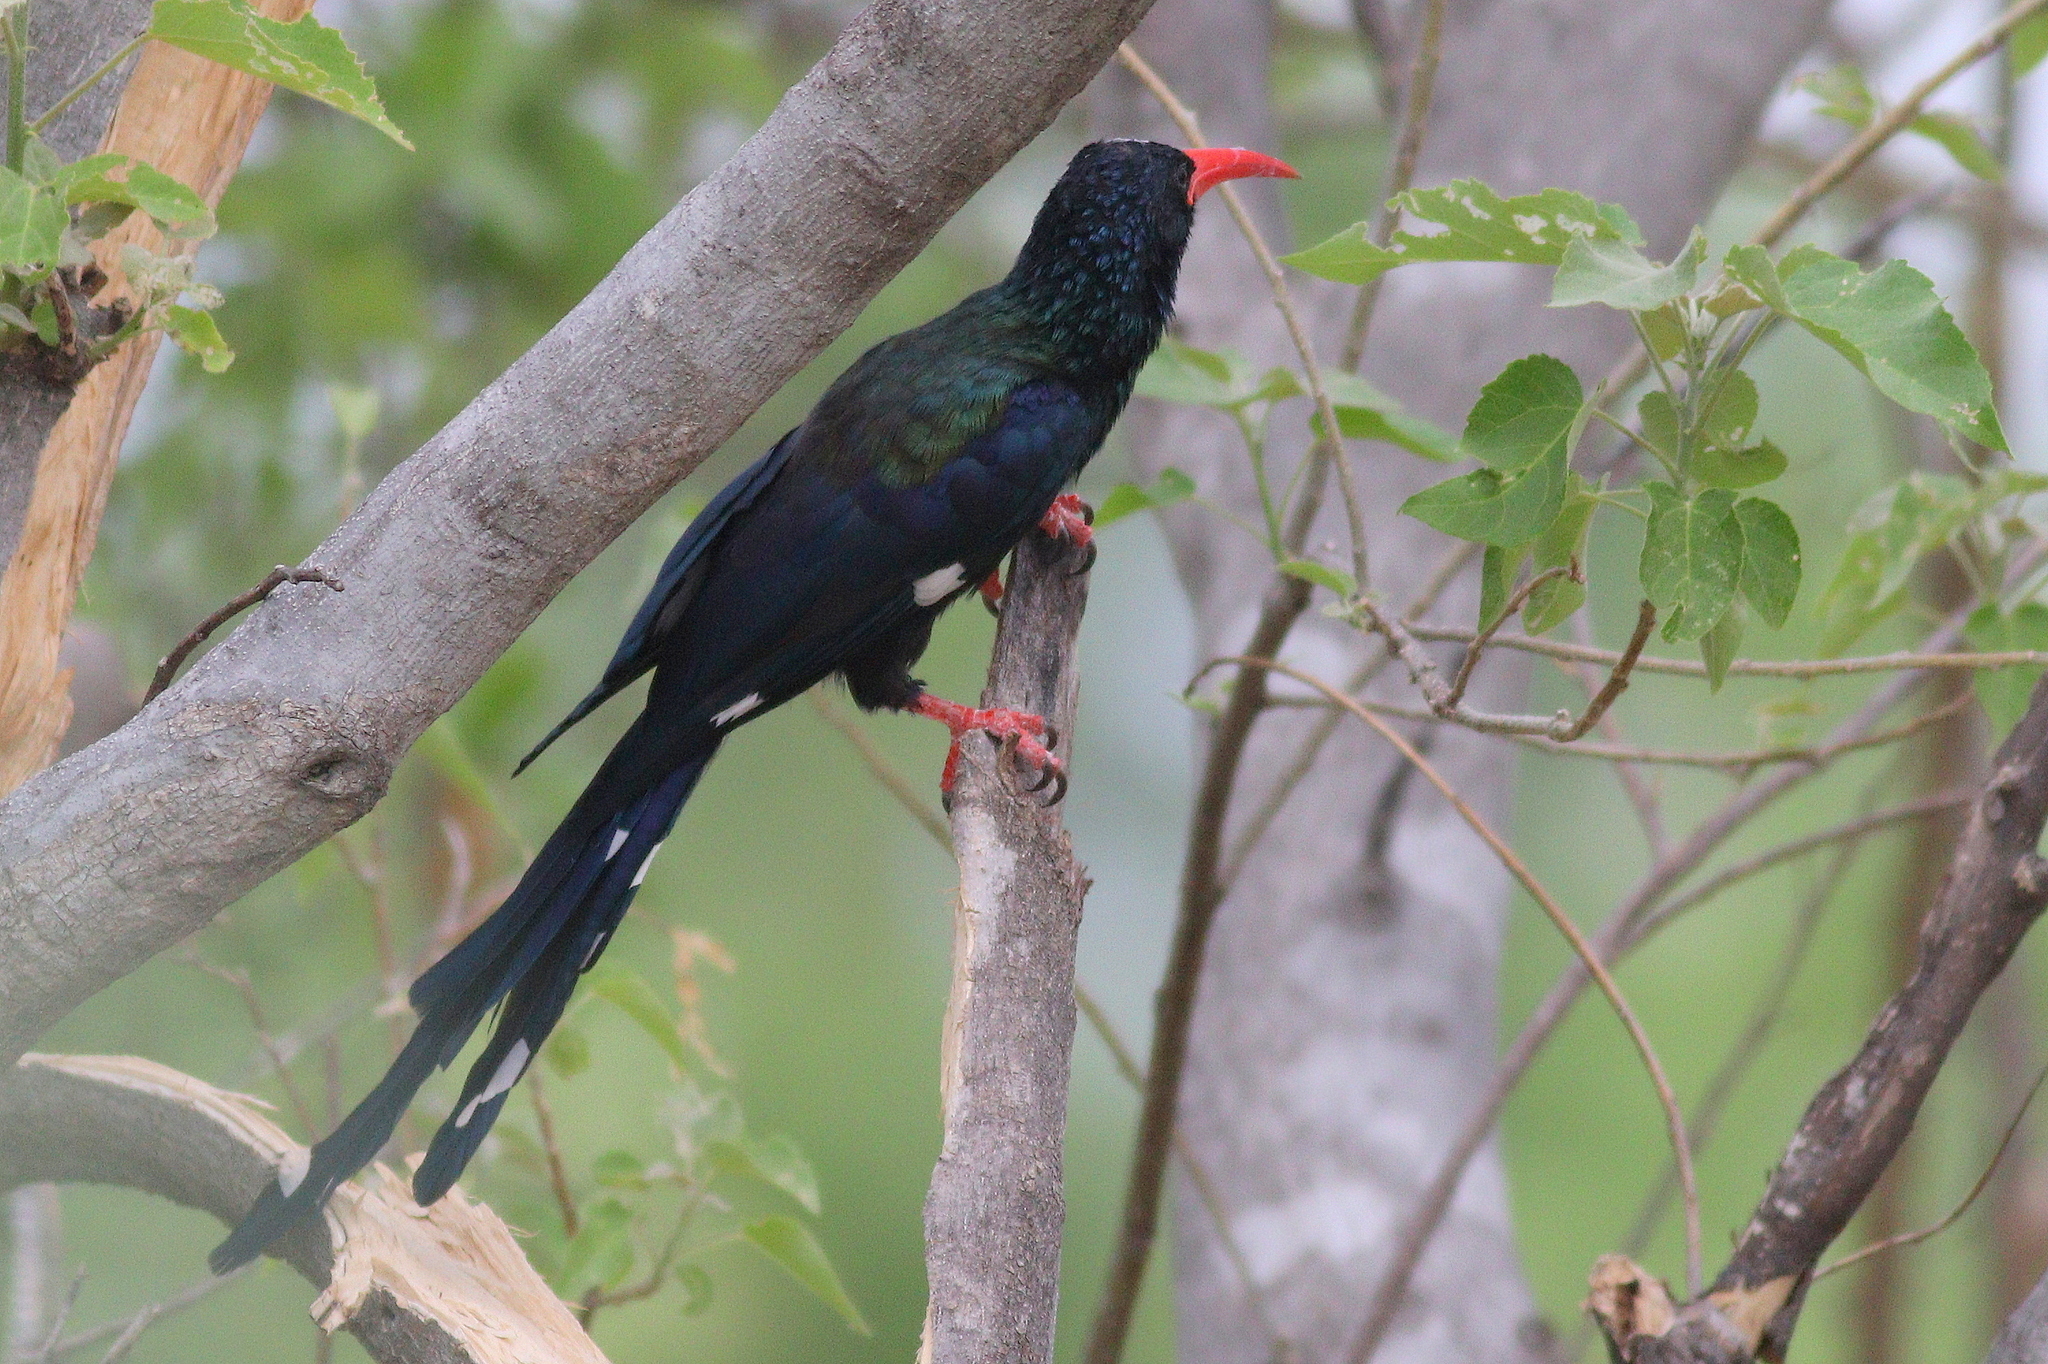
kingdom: Animalia
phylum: Chordata
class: Aves
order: Bucerotiformes
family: Phoeniculidae
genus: Phoeniculus
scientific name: Phoeniculus purpureus
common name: Green woodhoopoe
